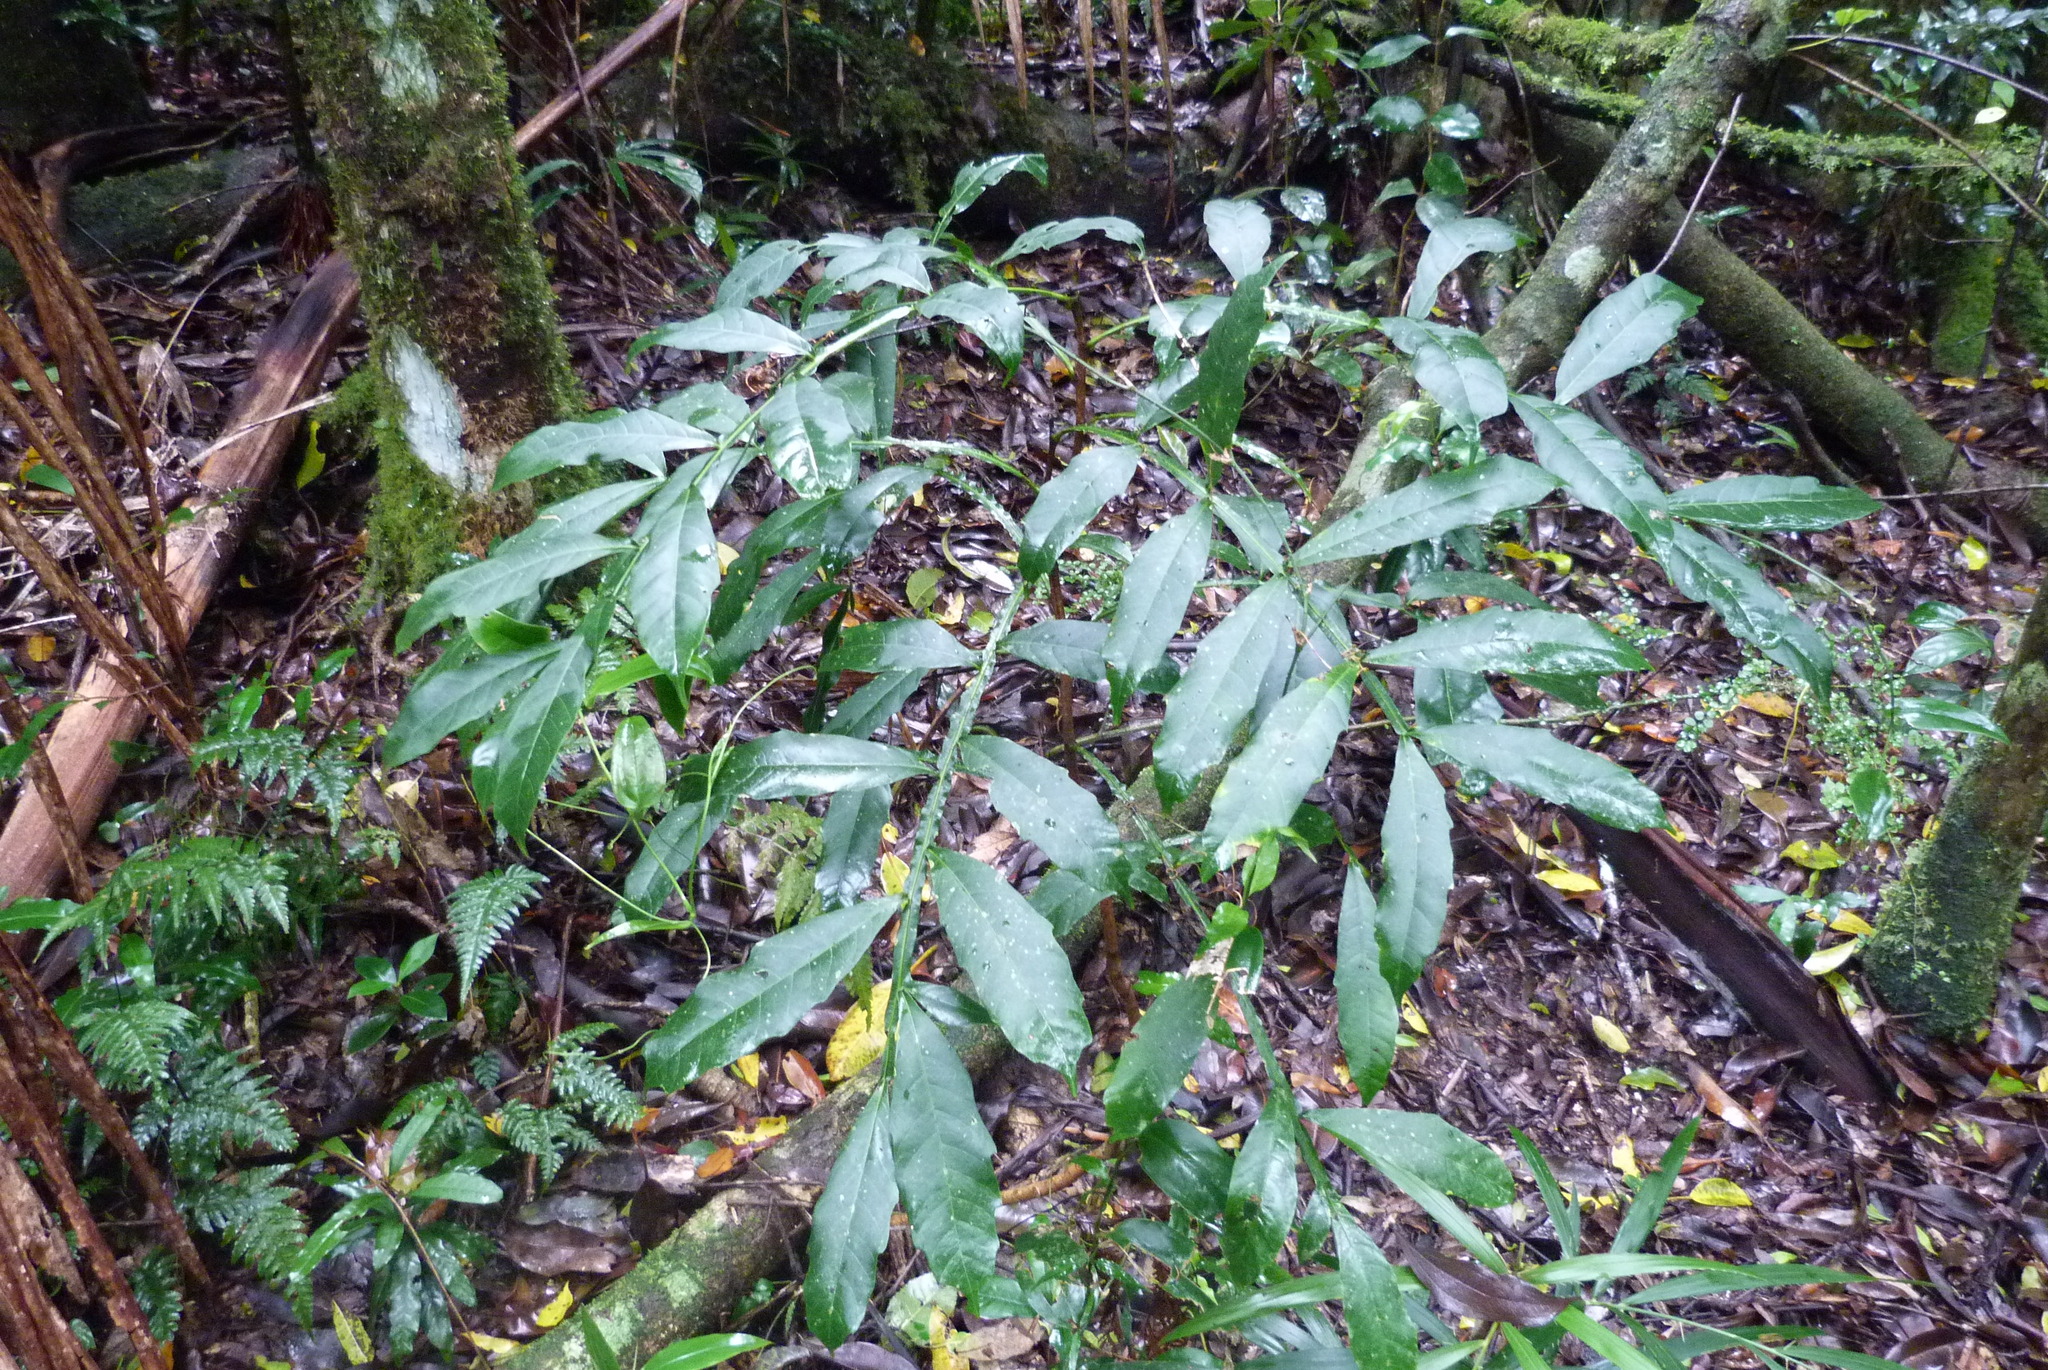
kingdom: Plantae
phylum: Tracheophyta
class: Magnoliopsida
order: Sapindales
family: Sapindaceae
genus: Harpullia
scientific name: Harpullia alata
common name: Wing-leaved tulip
